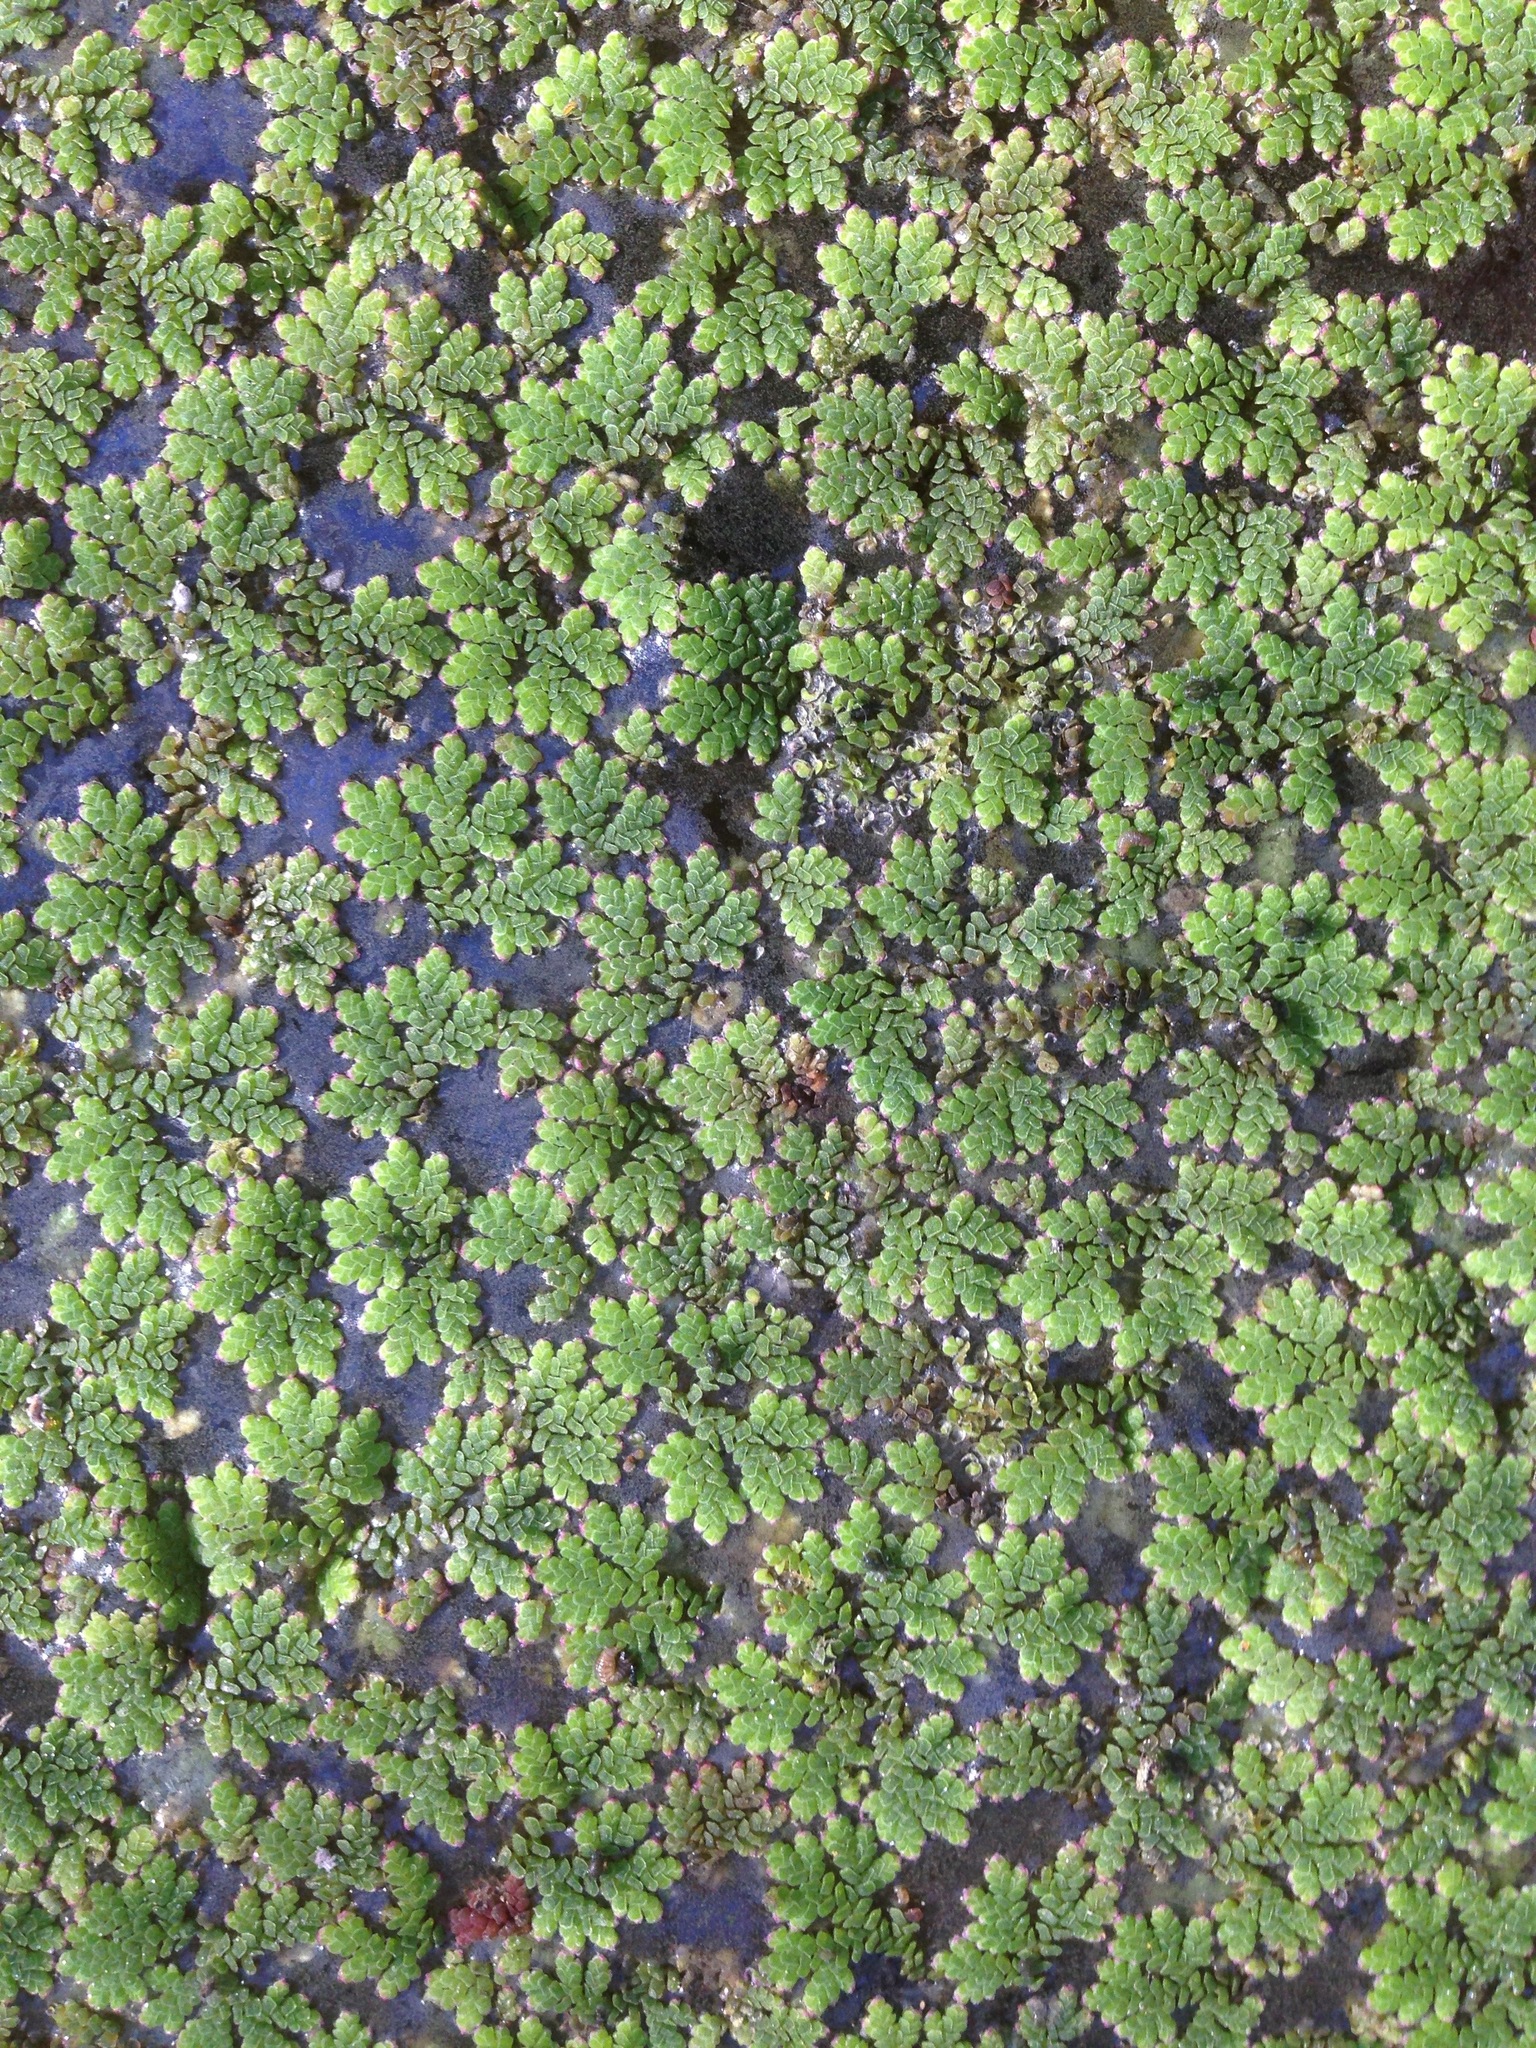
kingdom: Plantae
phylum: Tracheophyta
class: Polypodiopsida
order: Salviniales
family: Salviniaceae
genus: Azolla
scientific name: Azolla filiculoides
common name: Water fern
